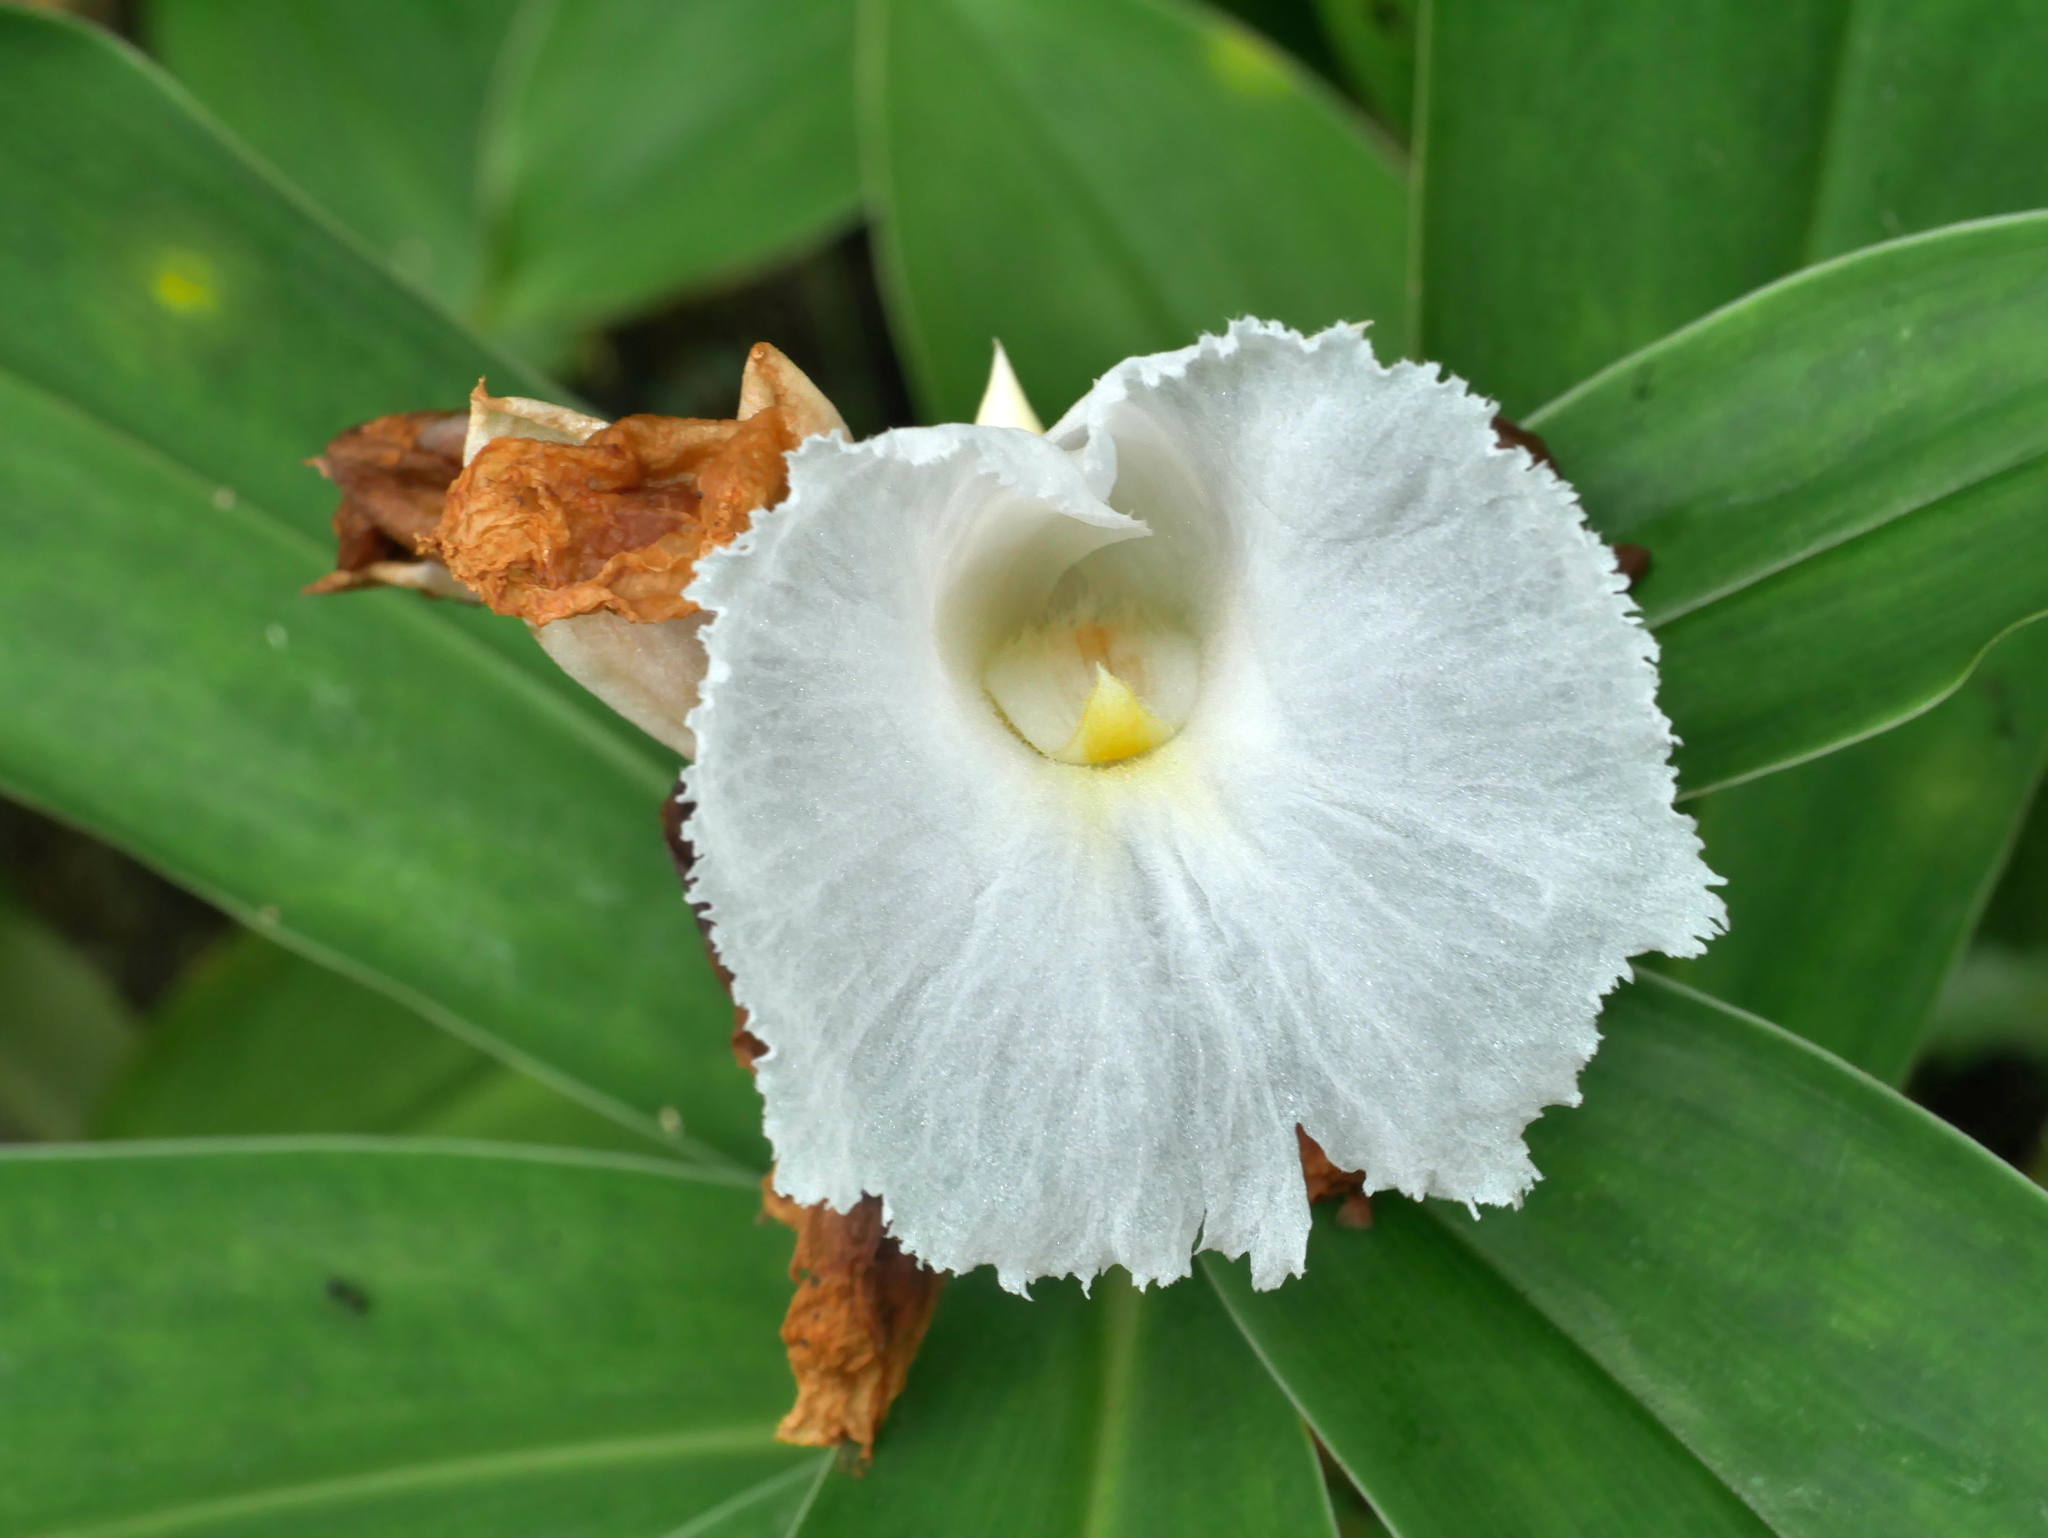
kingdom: Plantae
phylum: Tracheophyta
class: Liliopsida
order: Zingiberales
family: Costaceae
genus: Hellenia
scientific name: Hellenia speciosa
